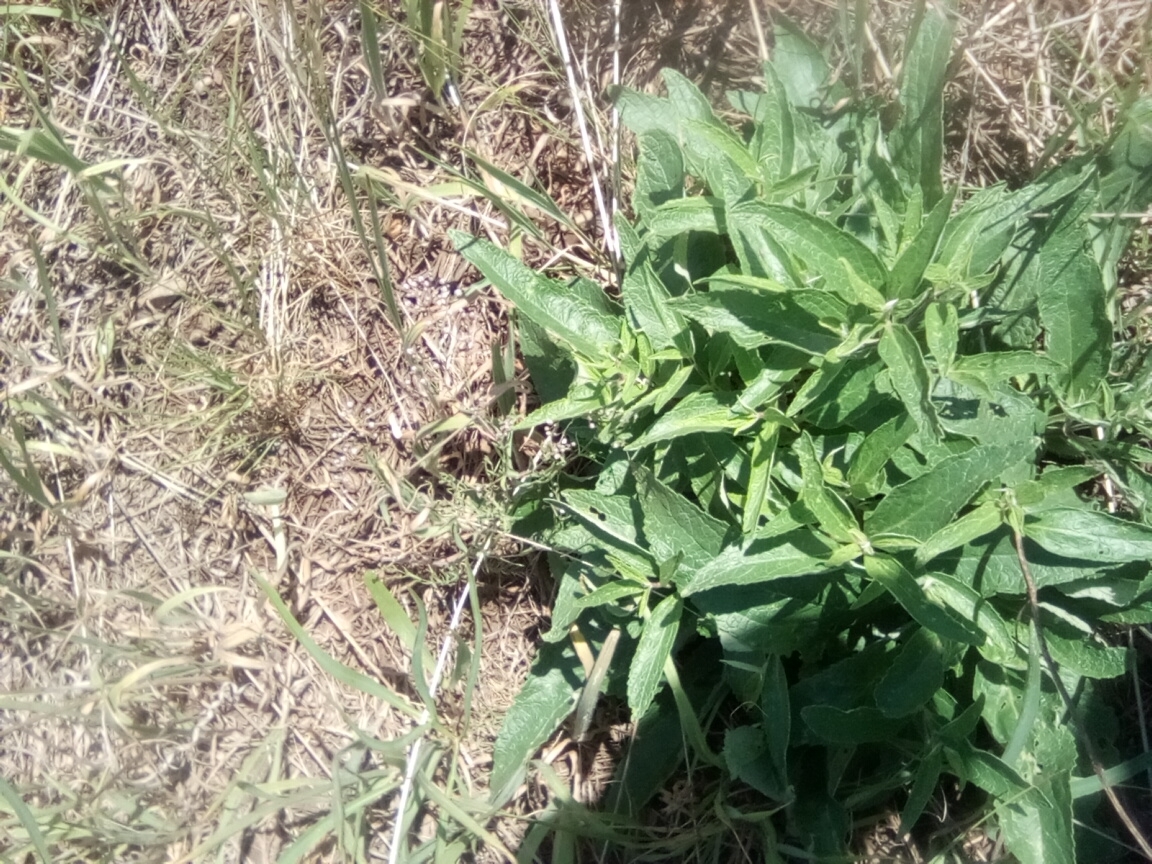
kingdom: Plantae
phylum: Tracheophyta
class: Magnoliopsida
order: Lamiales
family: Lamiaceae
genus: Phlomis
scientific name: Phlomis herba-venti
